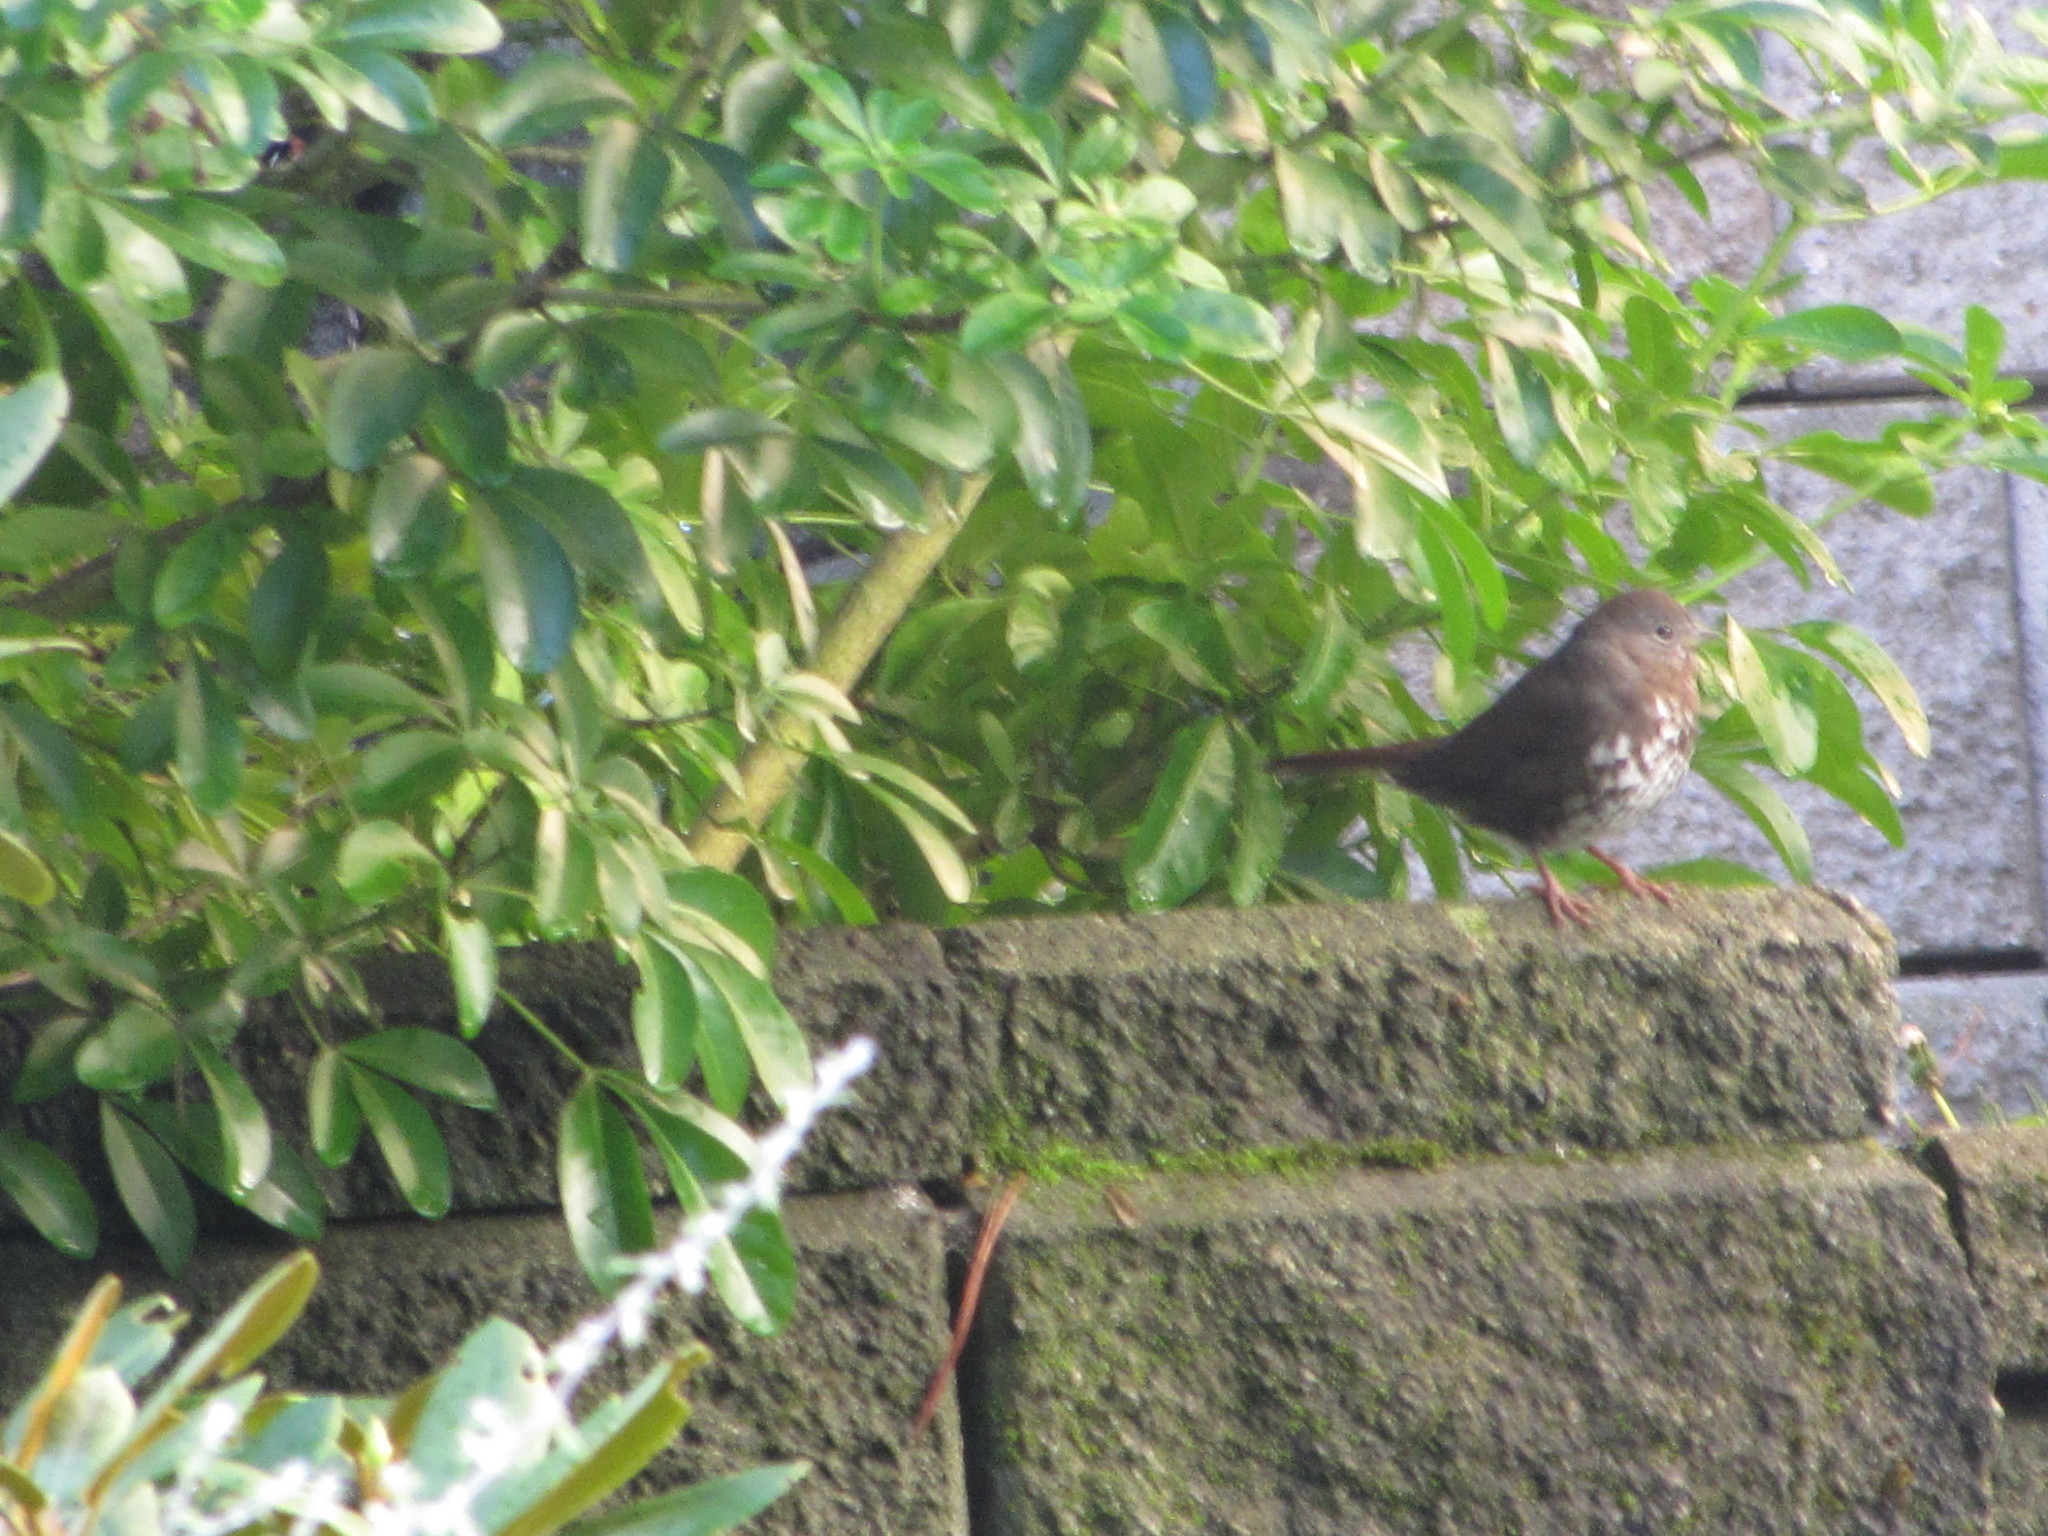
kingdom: Animalia
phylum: Chordata
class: Aves
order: Passeriformes
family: Passerellidae
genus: Passerella
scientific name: Passerella iliaca
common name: Fox sparrow
